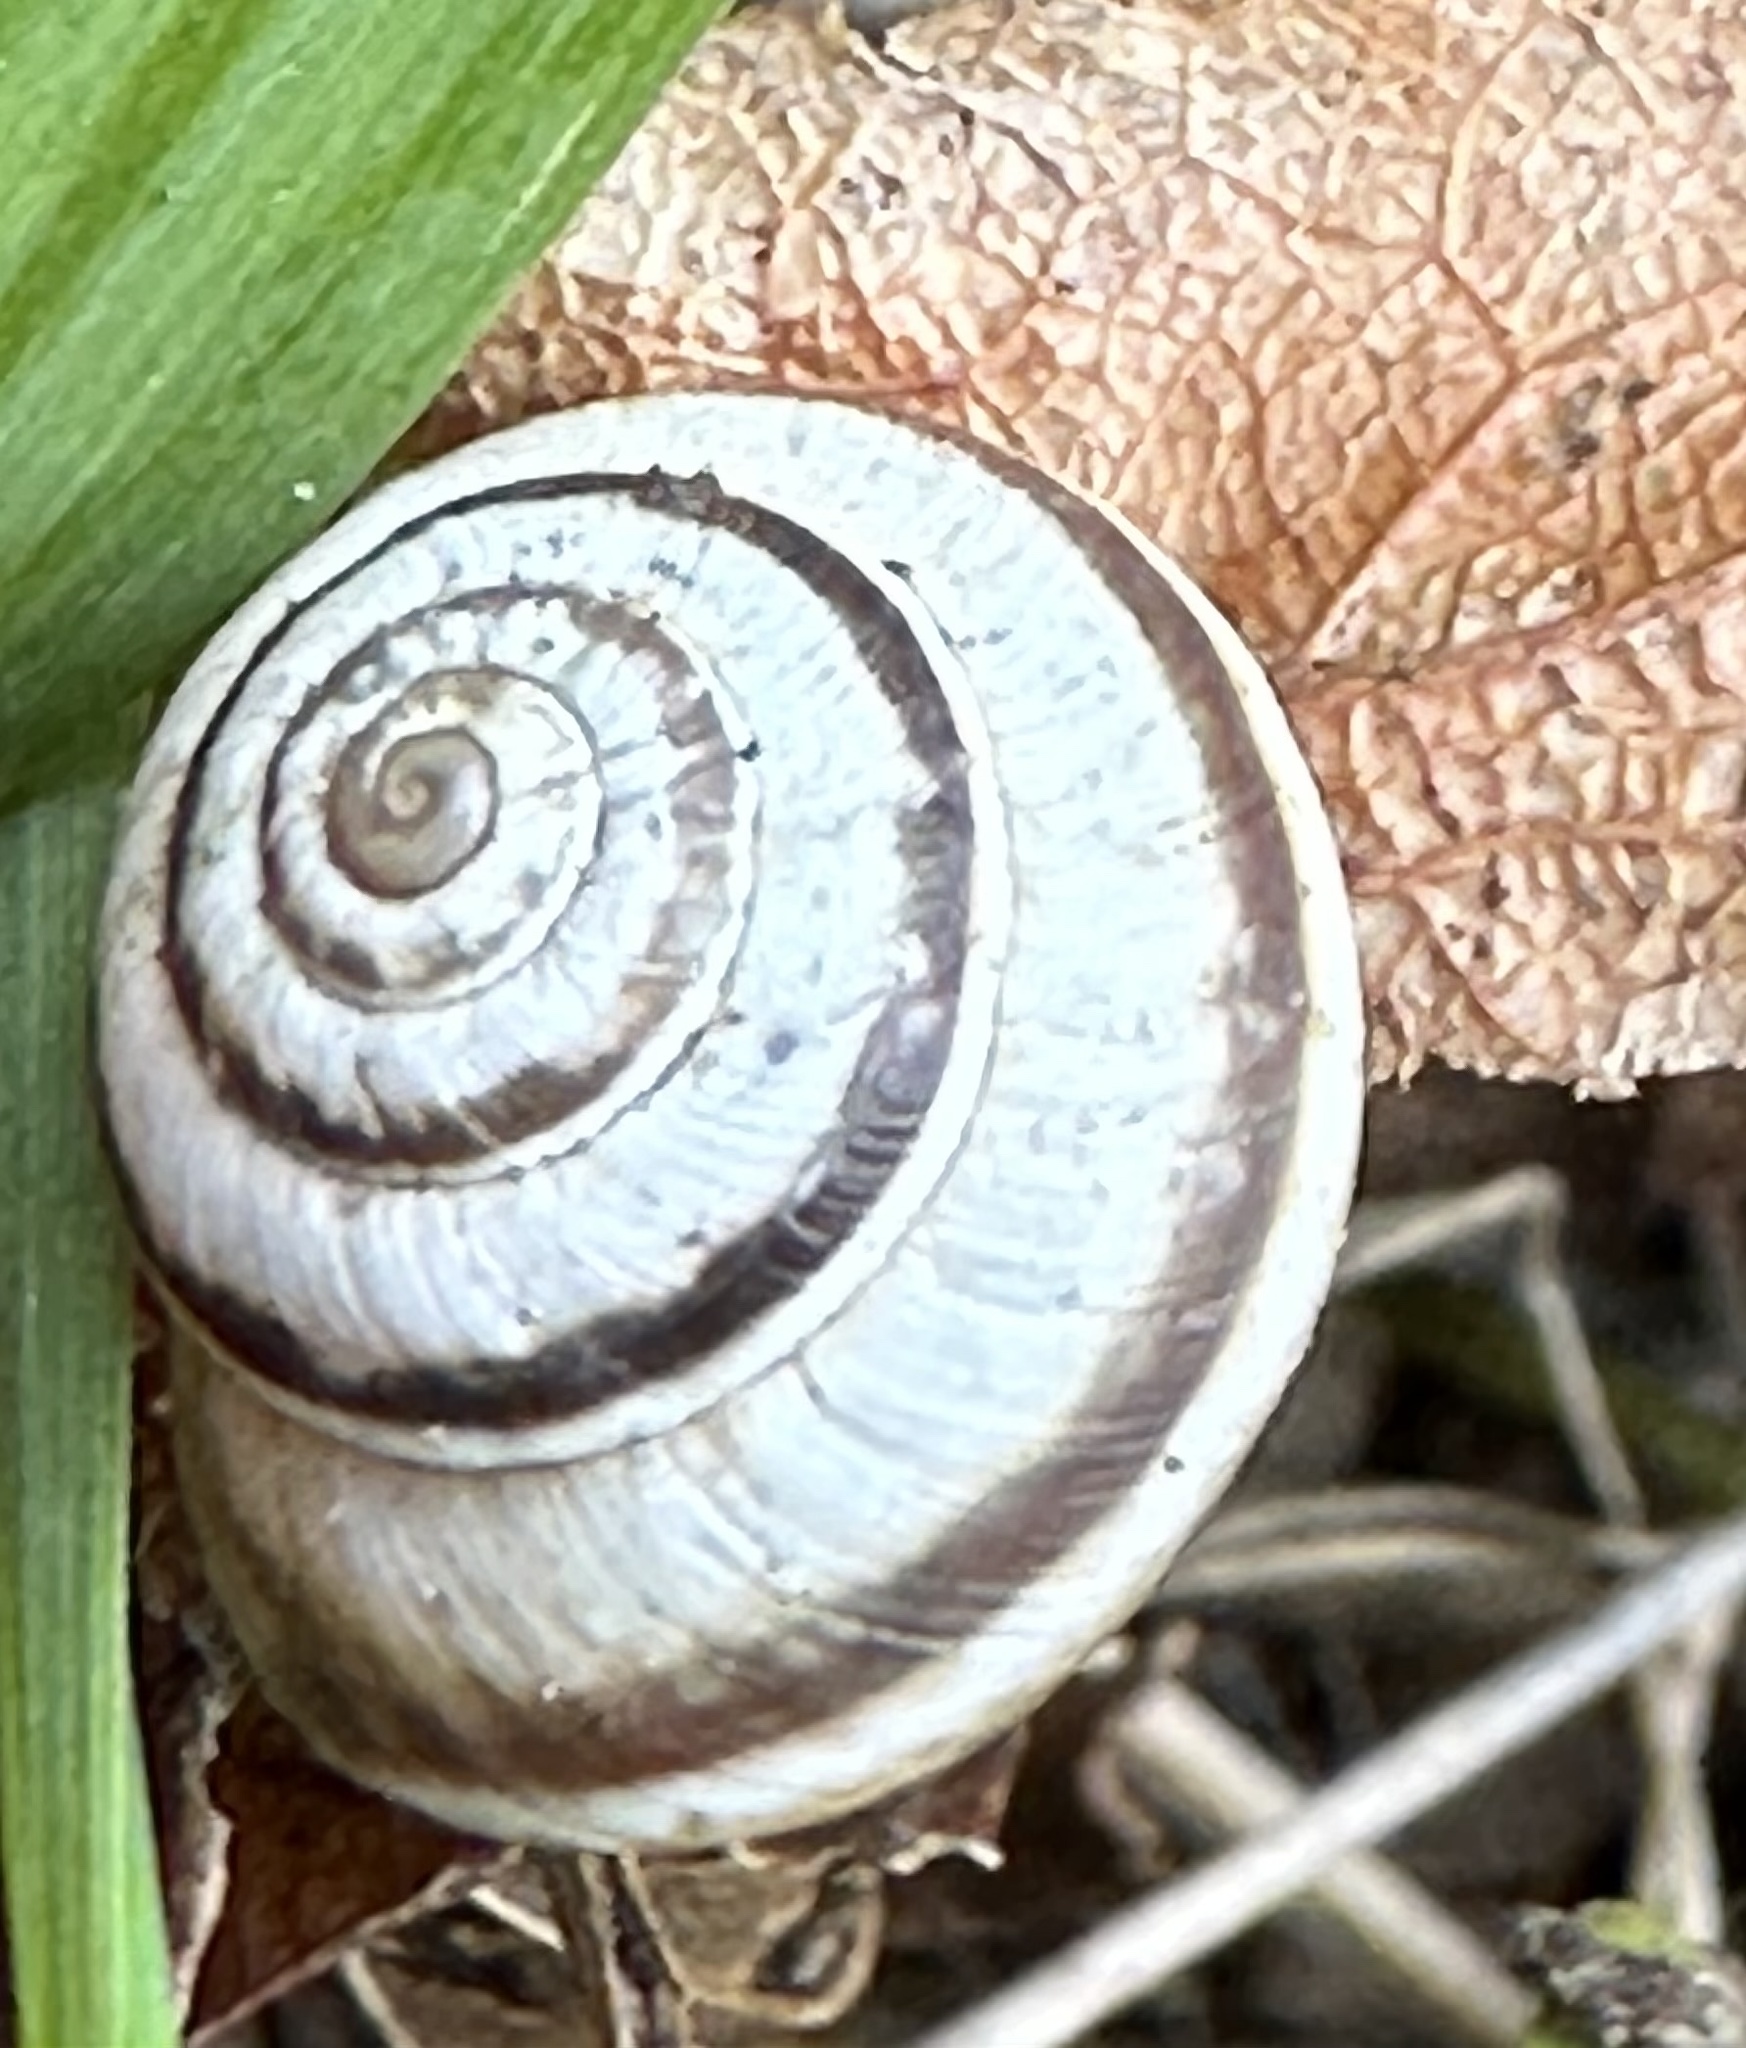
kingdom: Animalia
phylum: Mollusca
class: Gastropoda
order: Stylommatophora
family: Geomitridae
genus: Cernuella
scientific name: Cernuella virgata
